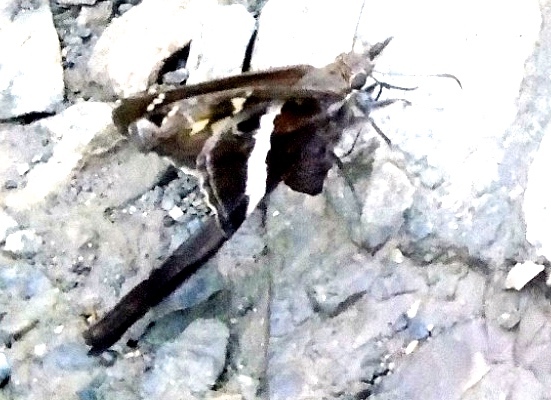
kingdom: Animalia
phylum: Arthropoda
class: Insecta
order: Lepidoptera
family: Hesperiidae
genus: Chioides
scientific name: Chioides catillus
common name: Silverbanded skipper
